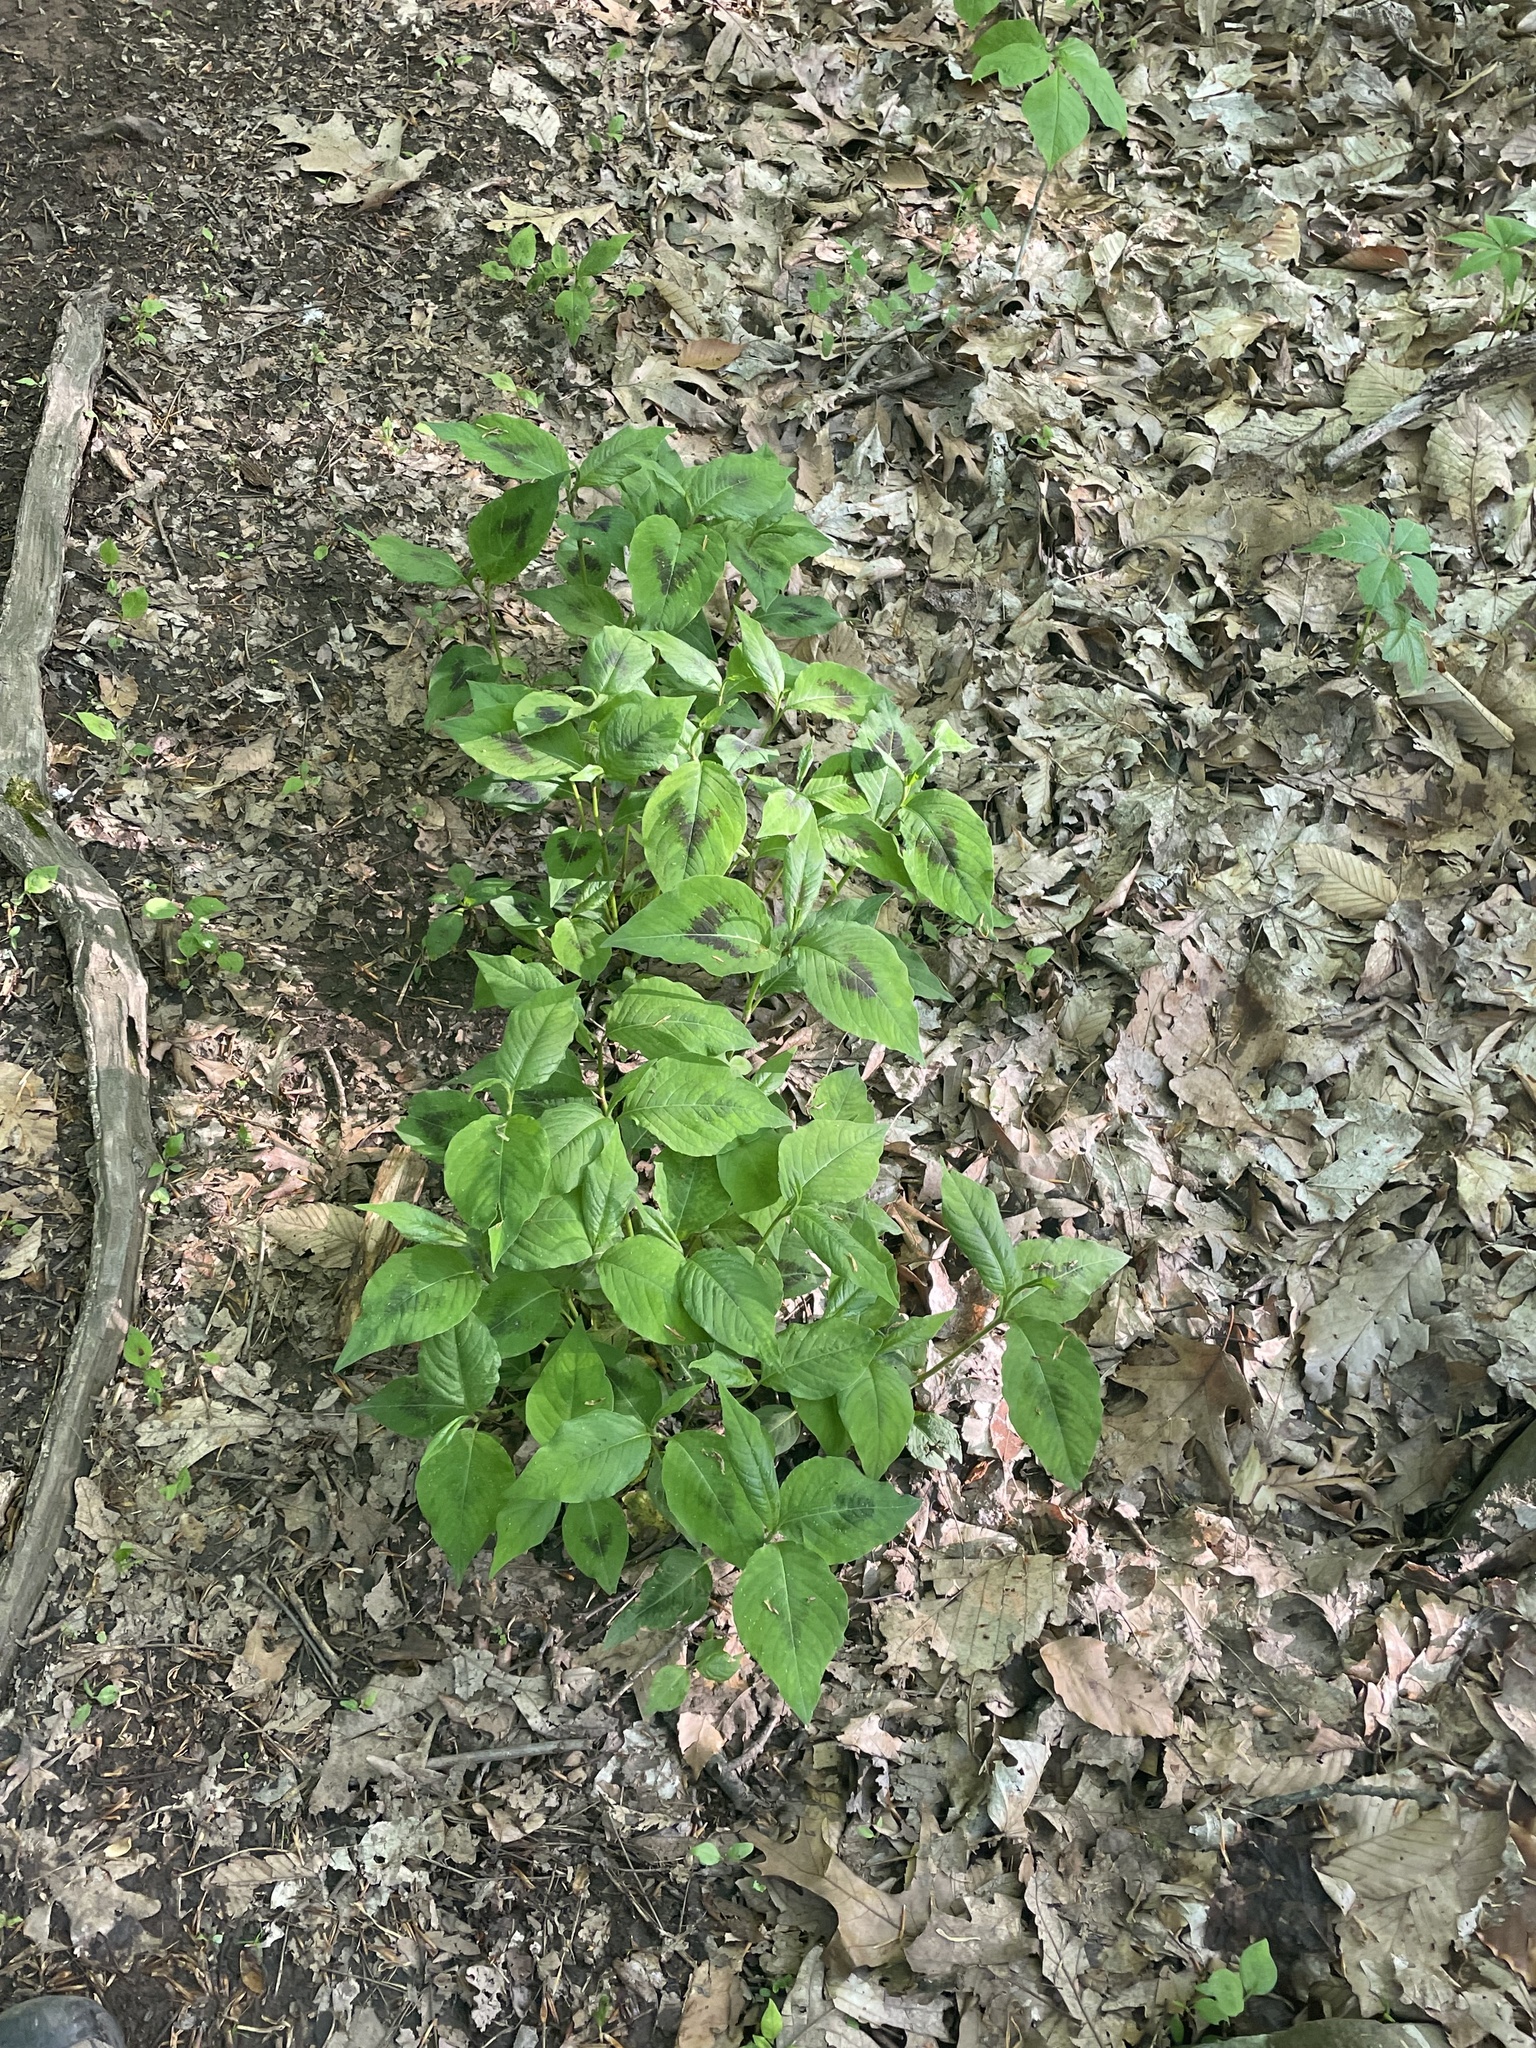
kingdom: Plantae
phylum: Tracheophyta
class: Magnoliopsida
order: Caryophyllales
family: Polygonaceae
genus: Persicaria
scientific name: Persicaria virginiana
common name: Jumpseed
